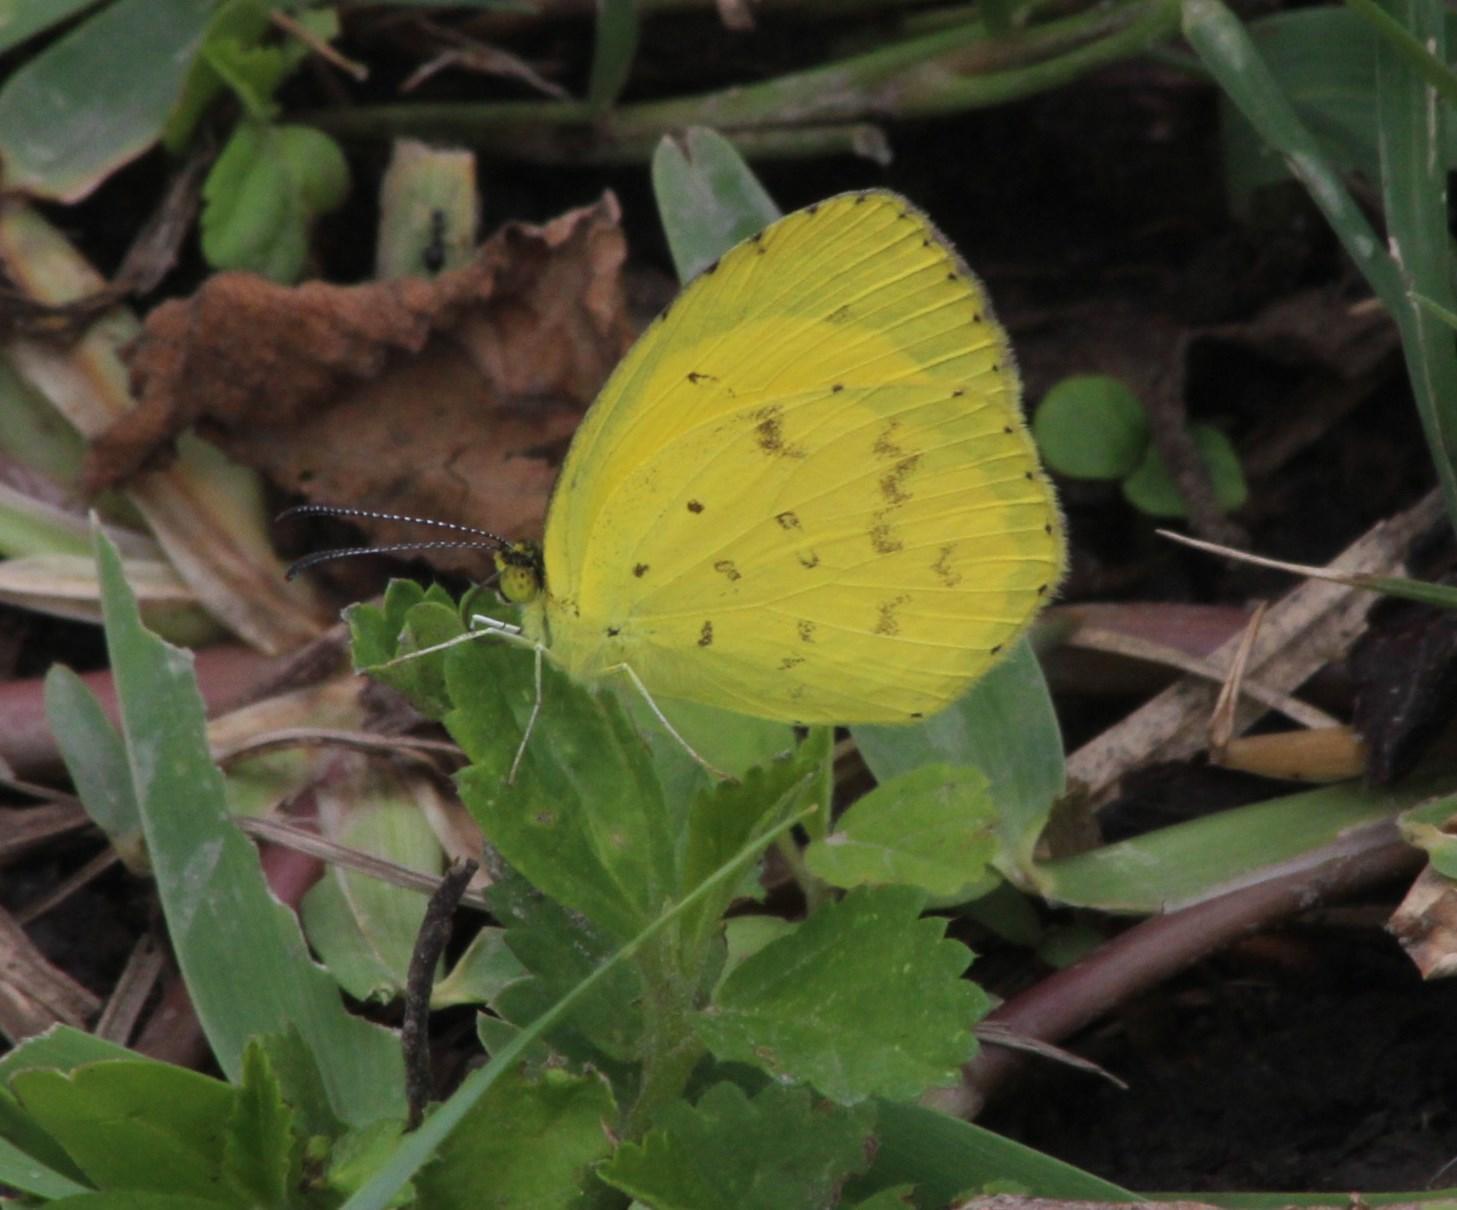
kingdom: Animalia
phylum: Arthropoda
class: Insecta
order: Lepidoptera
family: Pieridae
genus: Eurema
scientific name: Eurema brigitta
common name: Small grass yellow
